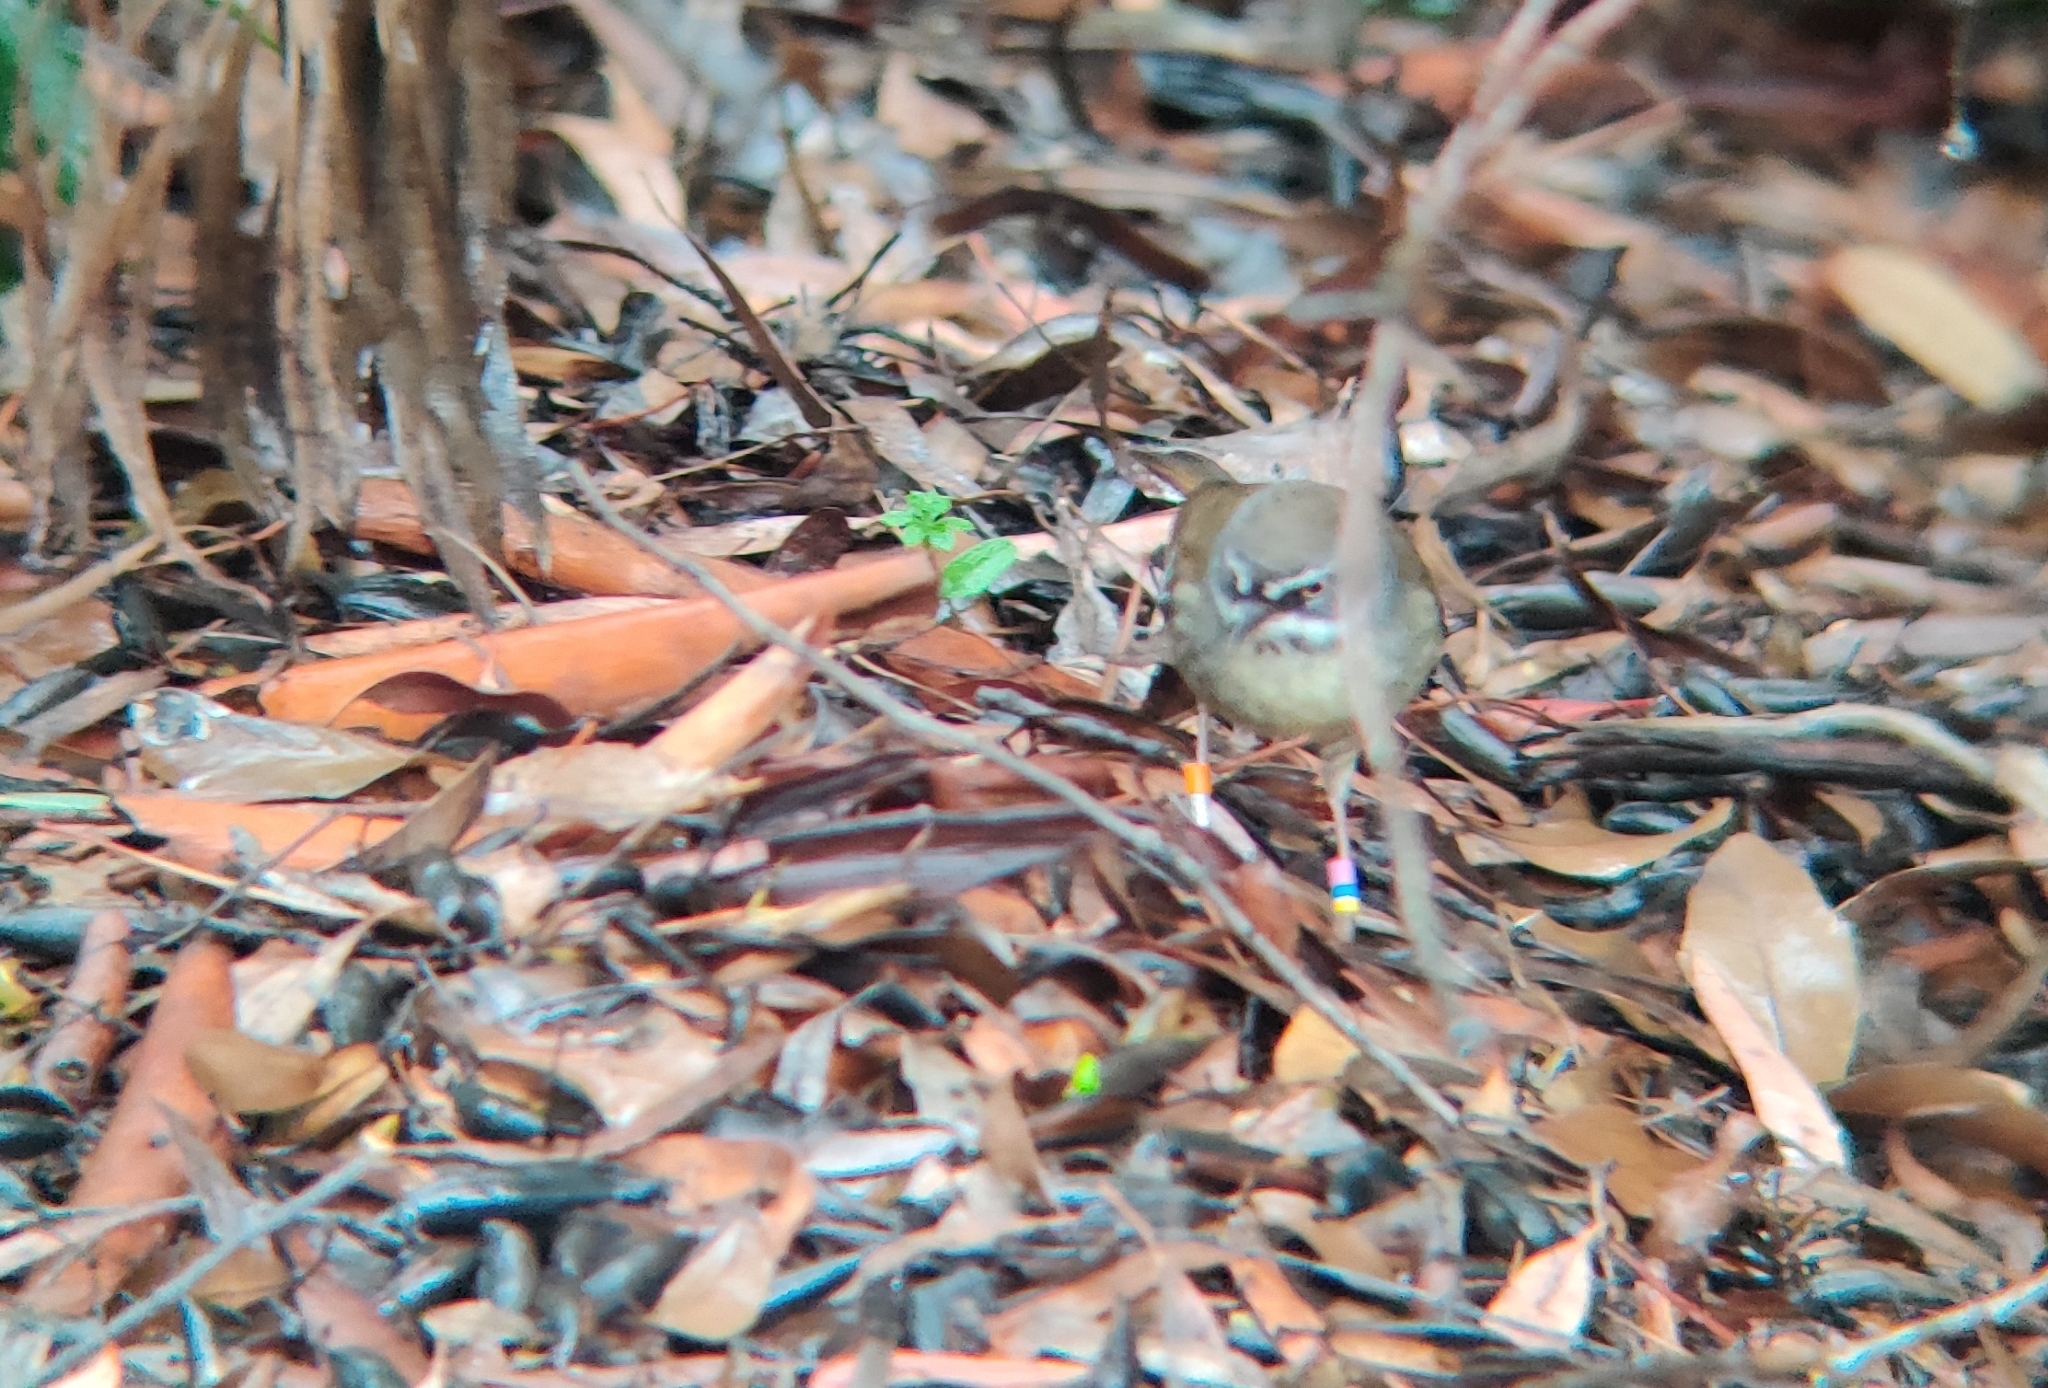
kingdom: Animalia
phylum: Chordata
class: Aves
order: Passeriformes
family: Acanthizidae
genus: Sericornis
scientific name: Sericornis frontalis
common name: White-browed scrubwren
